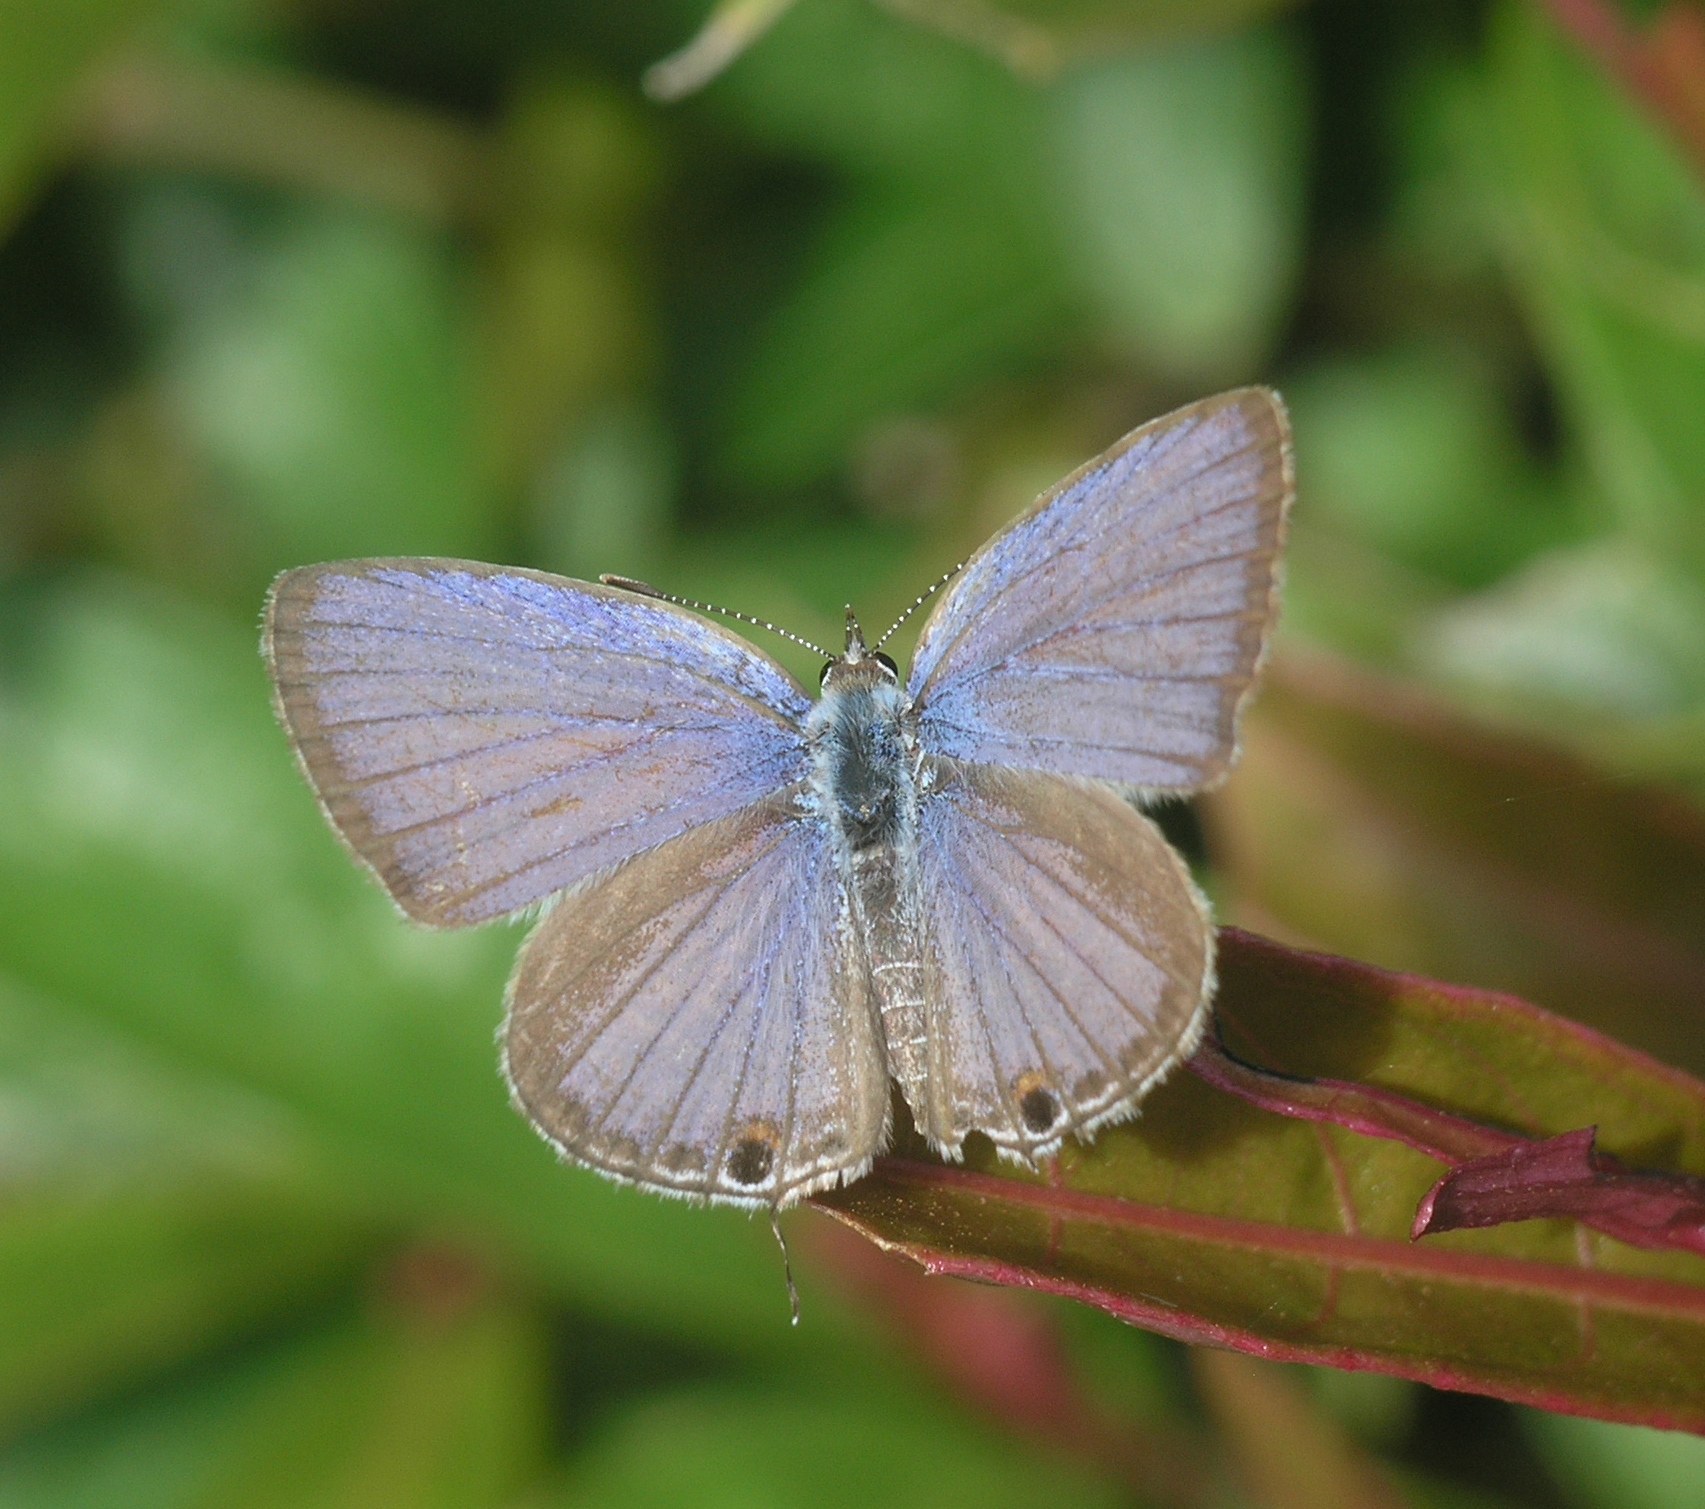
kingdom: Animalia
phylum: Arthropoda
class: Insecta
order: Lepidoptera
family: Lycaenidae
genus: Luthrodes
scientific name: Luthrodes pandava
